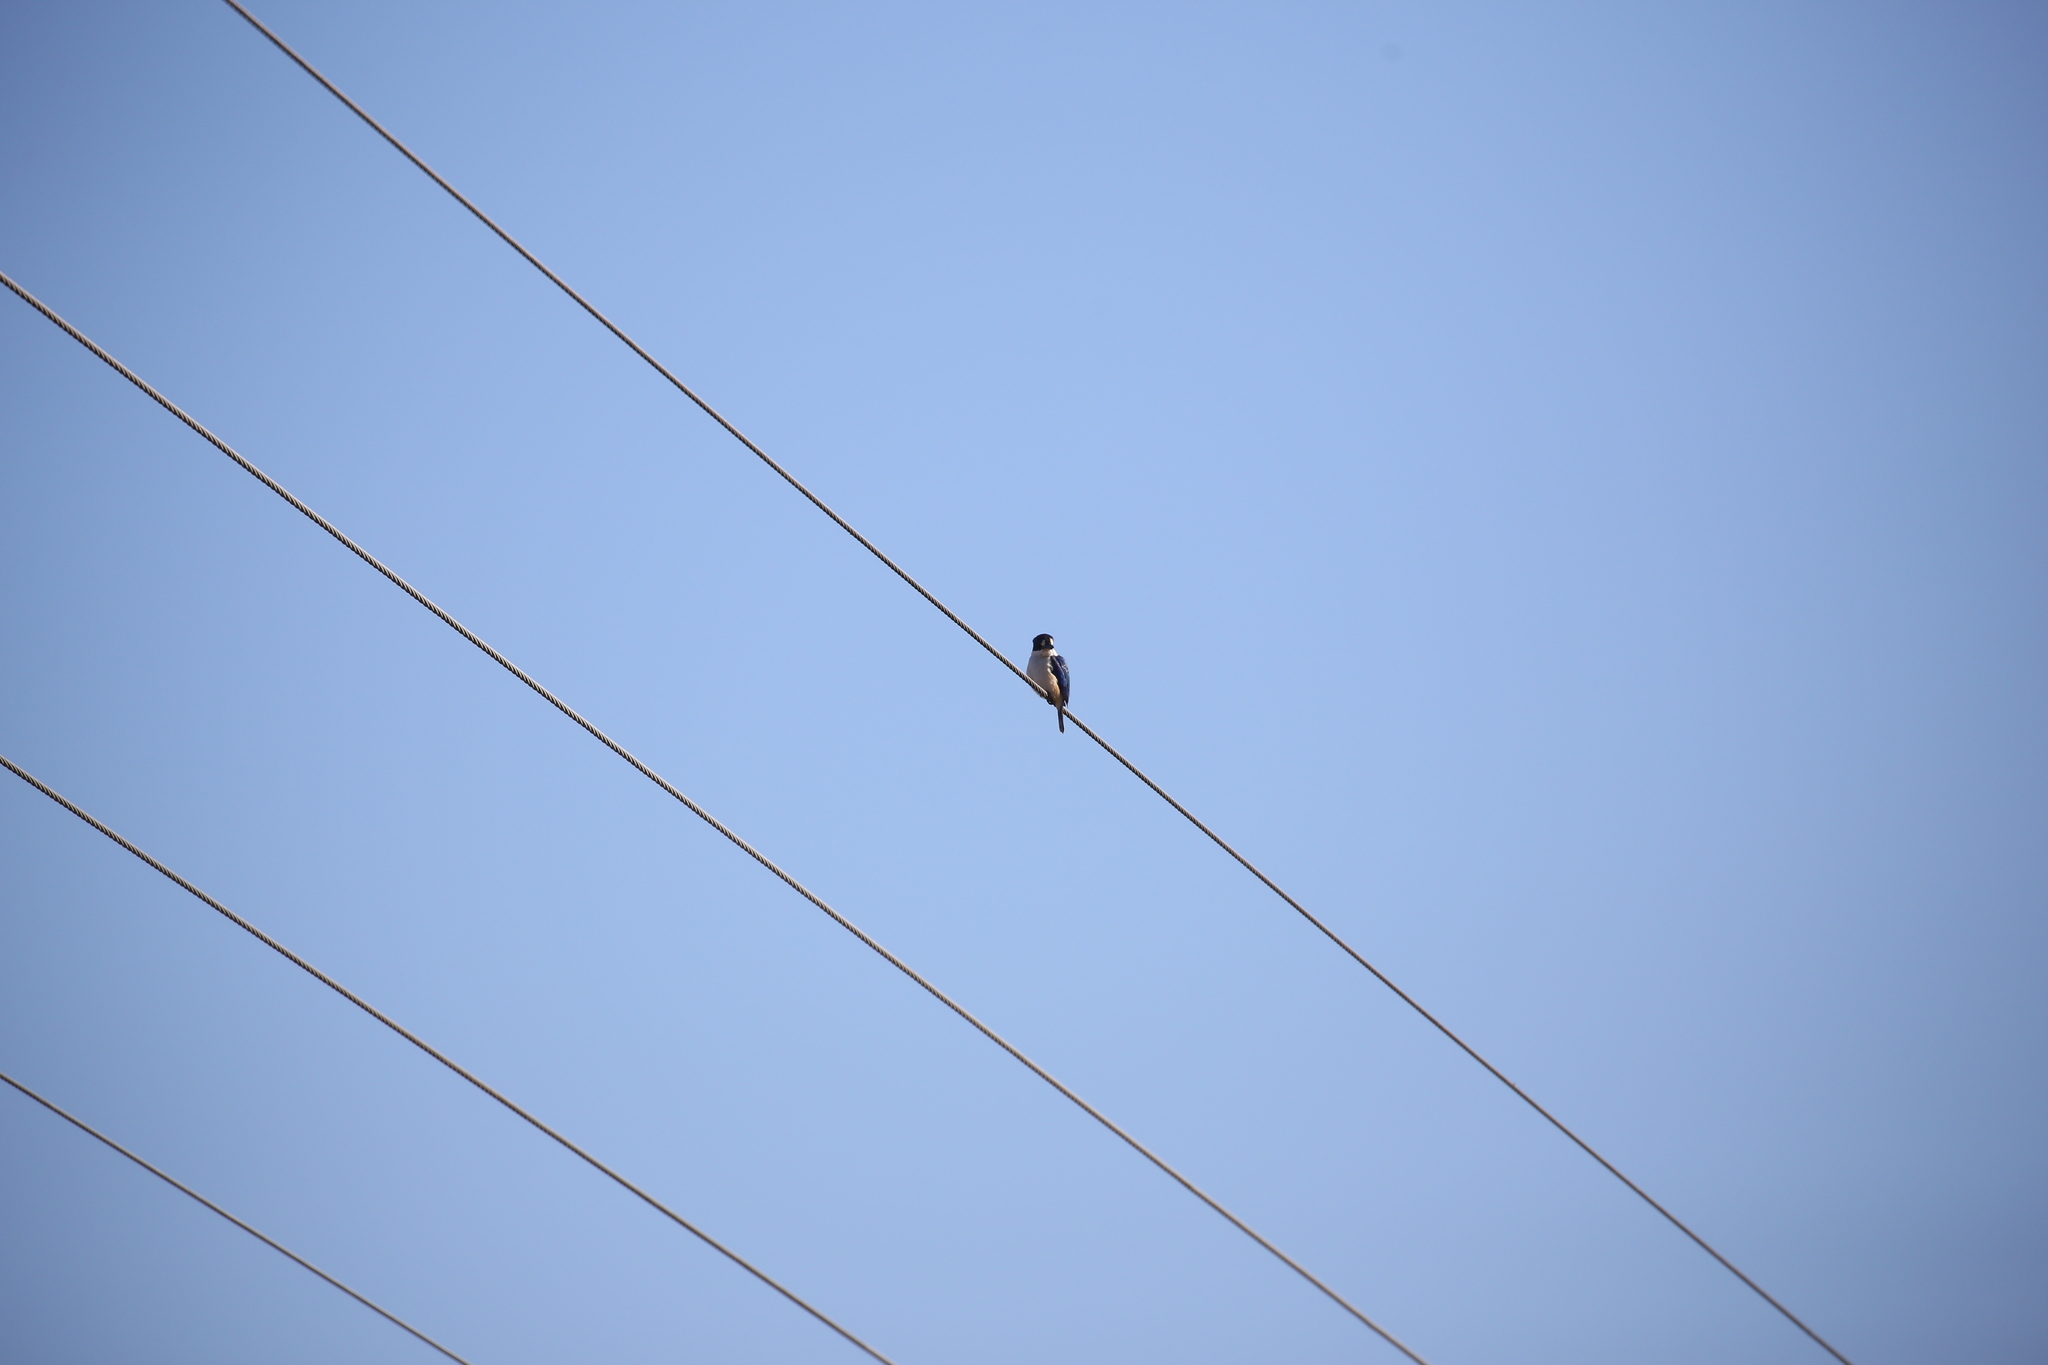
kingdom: Animalia
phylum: Chordata
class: Aves
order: Coraciiformes
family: Alcedinidae
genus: Todiramphus
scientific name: Todiramphus macleayii
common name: Forest kingfisher
